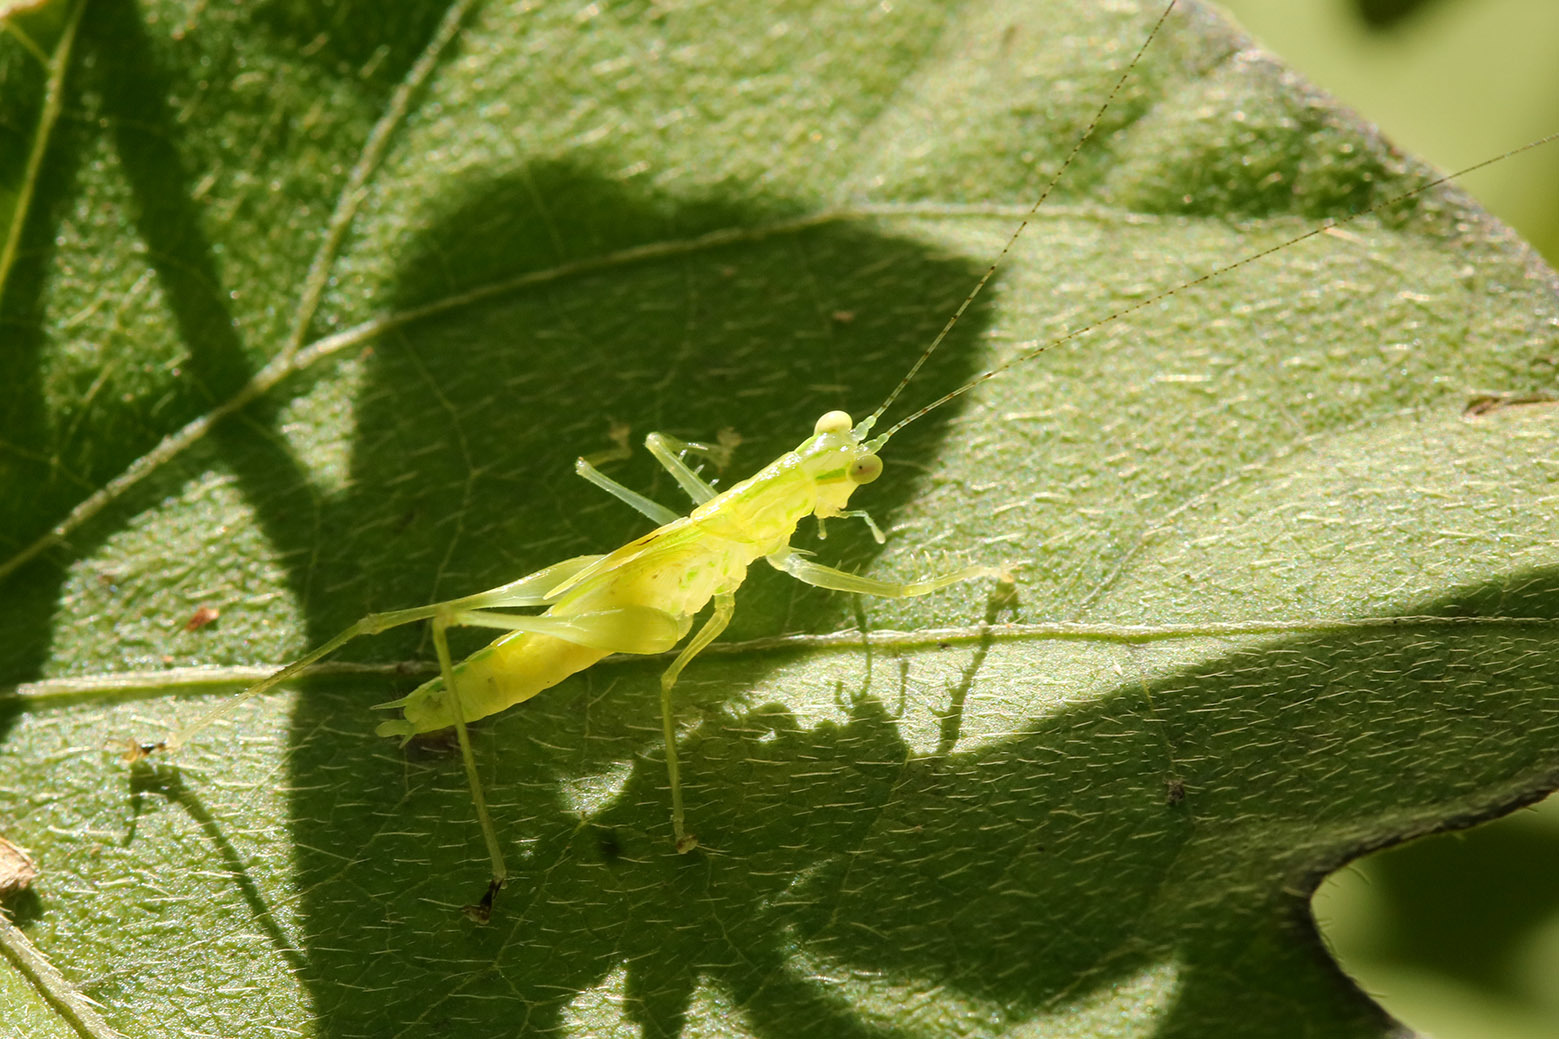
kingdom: Animalia
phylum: Arthropoda
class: Insecta
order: Orthoptera
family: Tettigoniidae
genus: Phlugis
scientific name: Phlugis proseni
